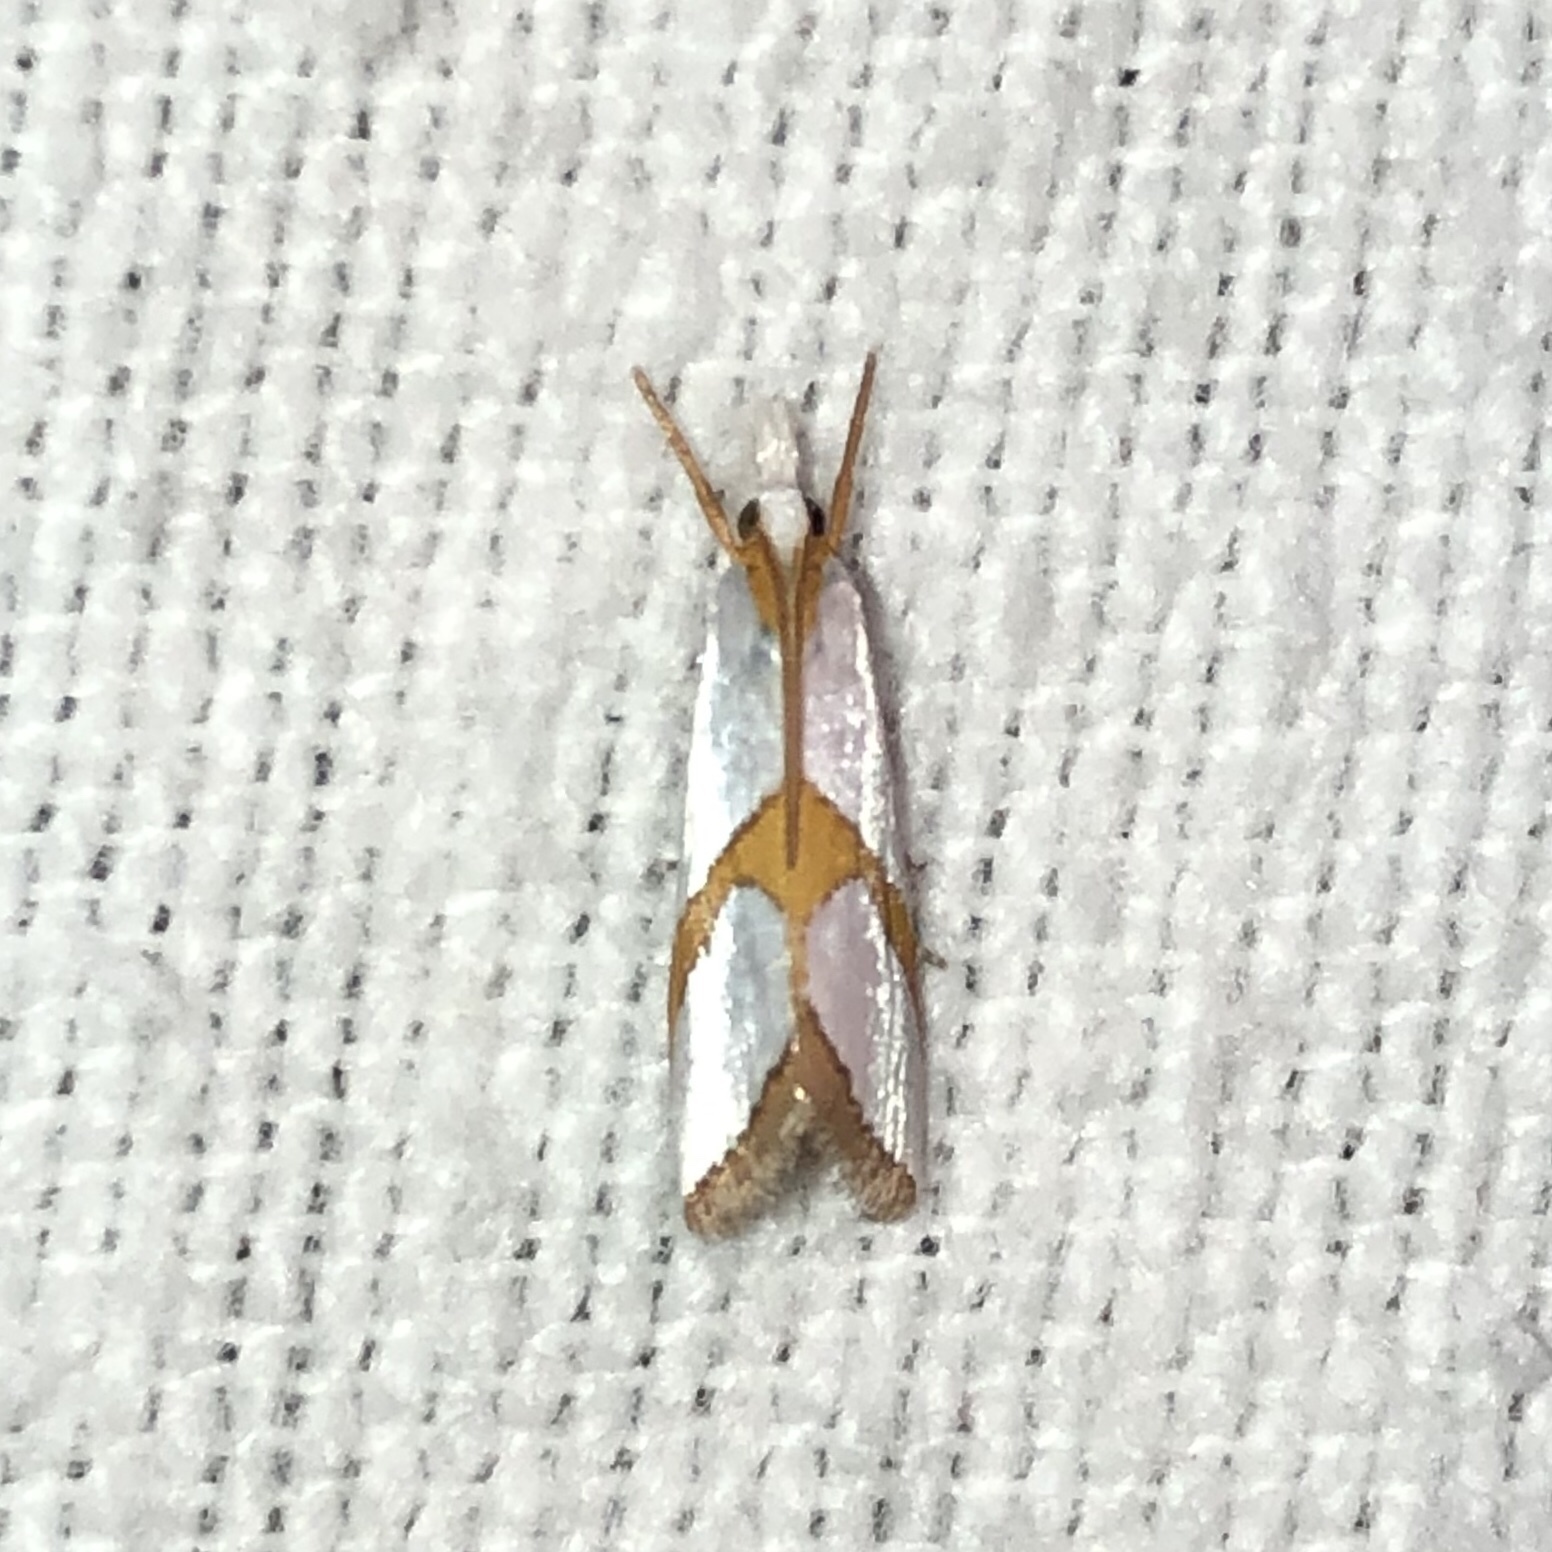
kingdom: Animalia
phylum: Arthropoda
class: Insecta
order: Lepidoptera
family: Crambidae
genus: Argyria
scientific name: Argyria auratella
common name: Curve-lined argyria moth
